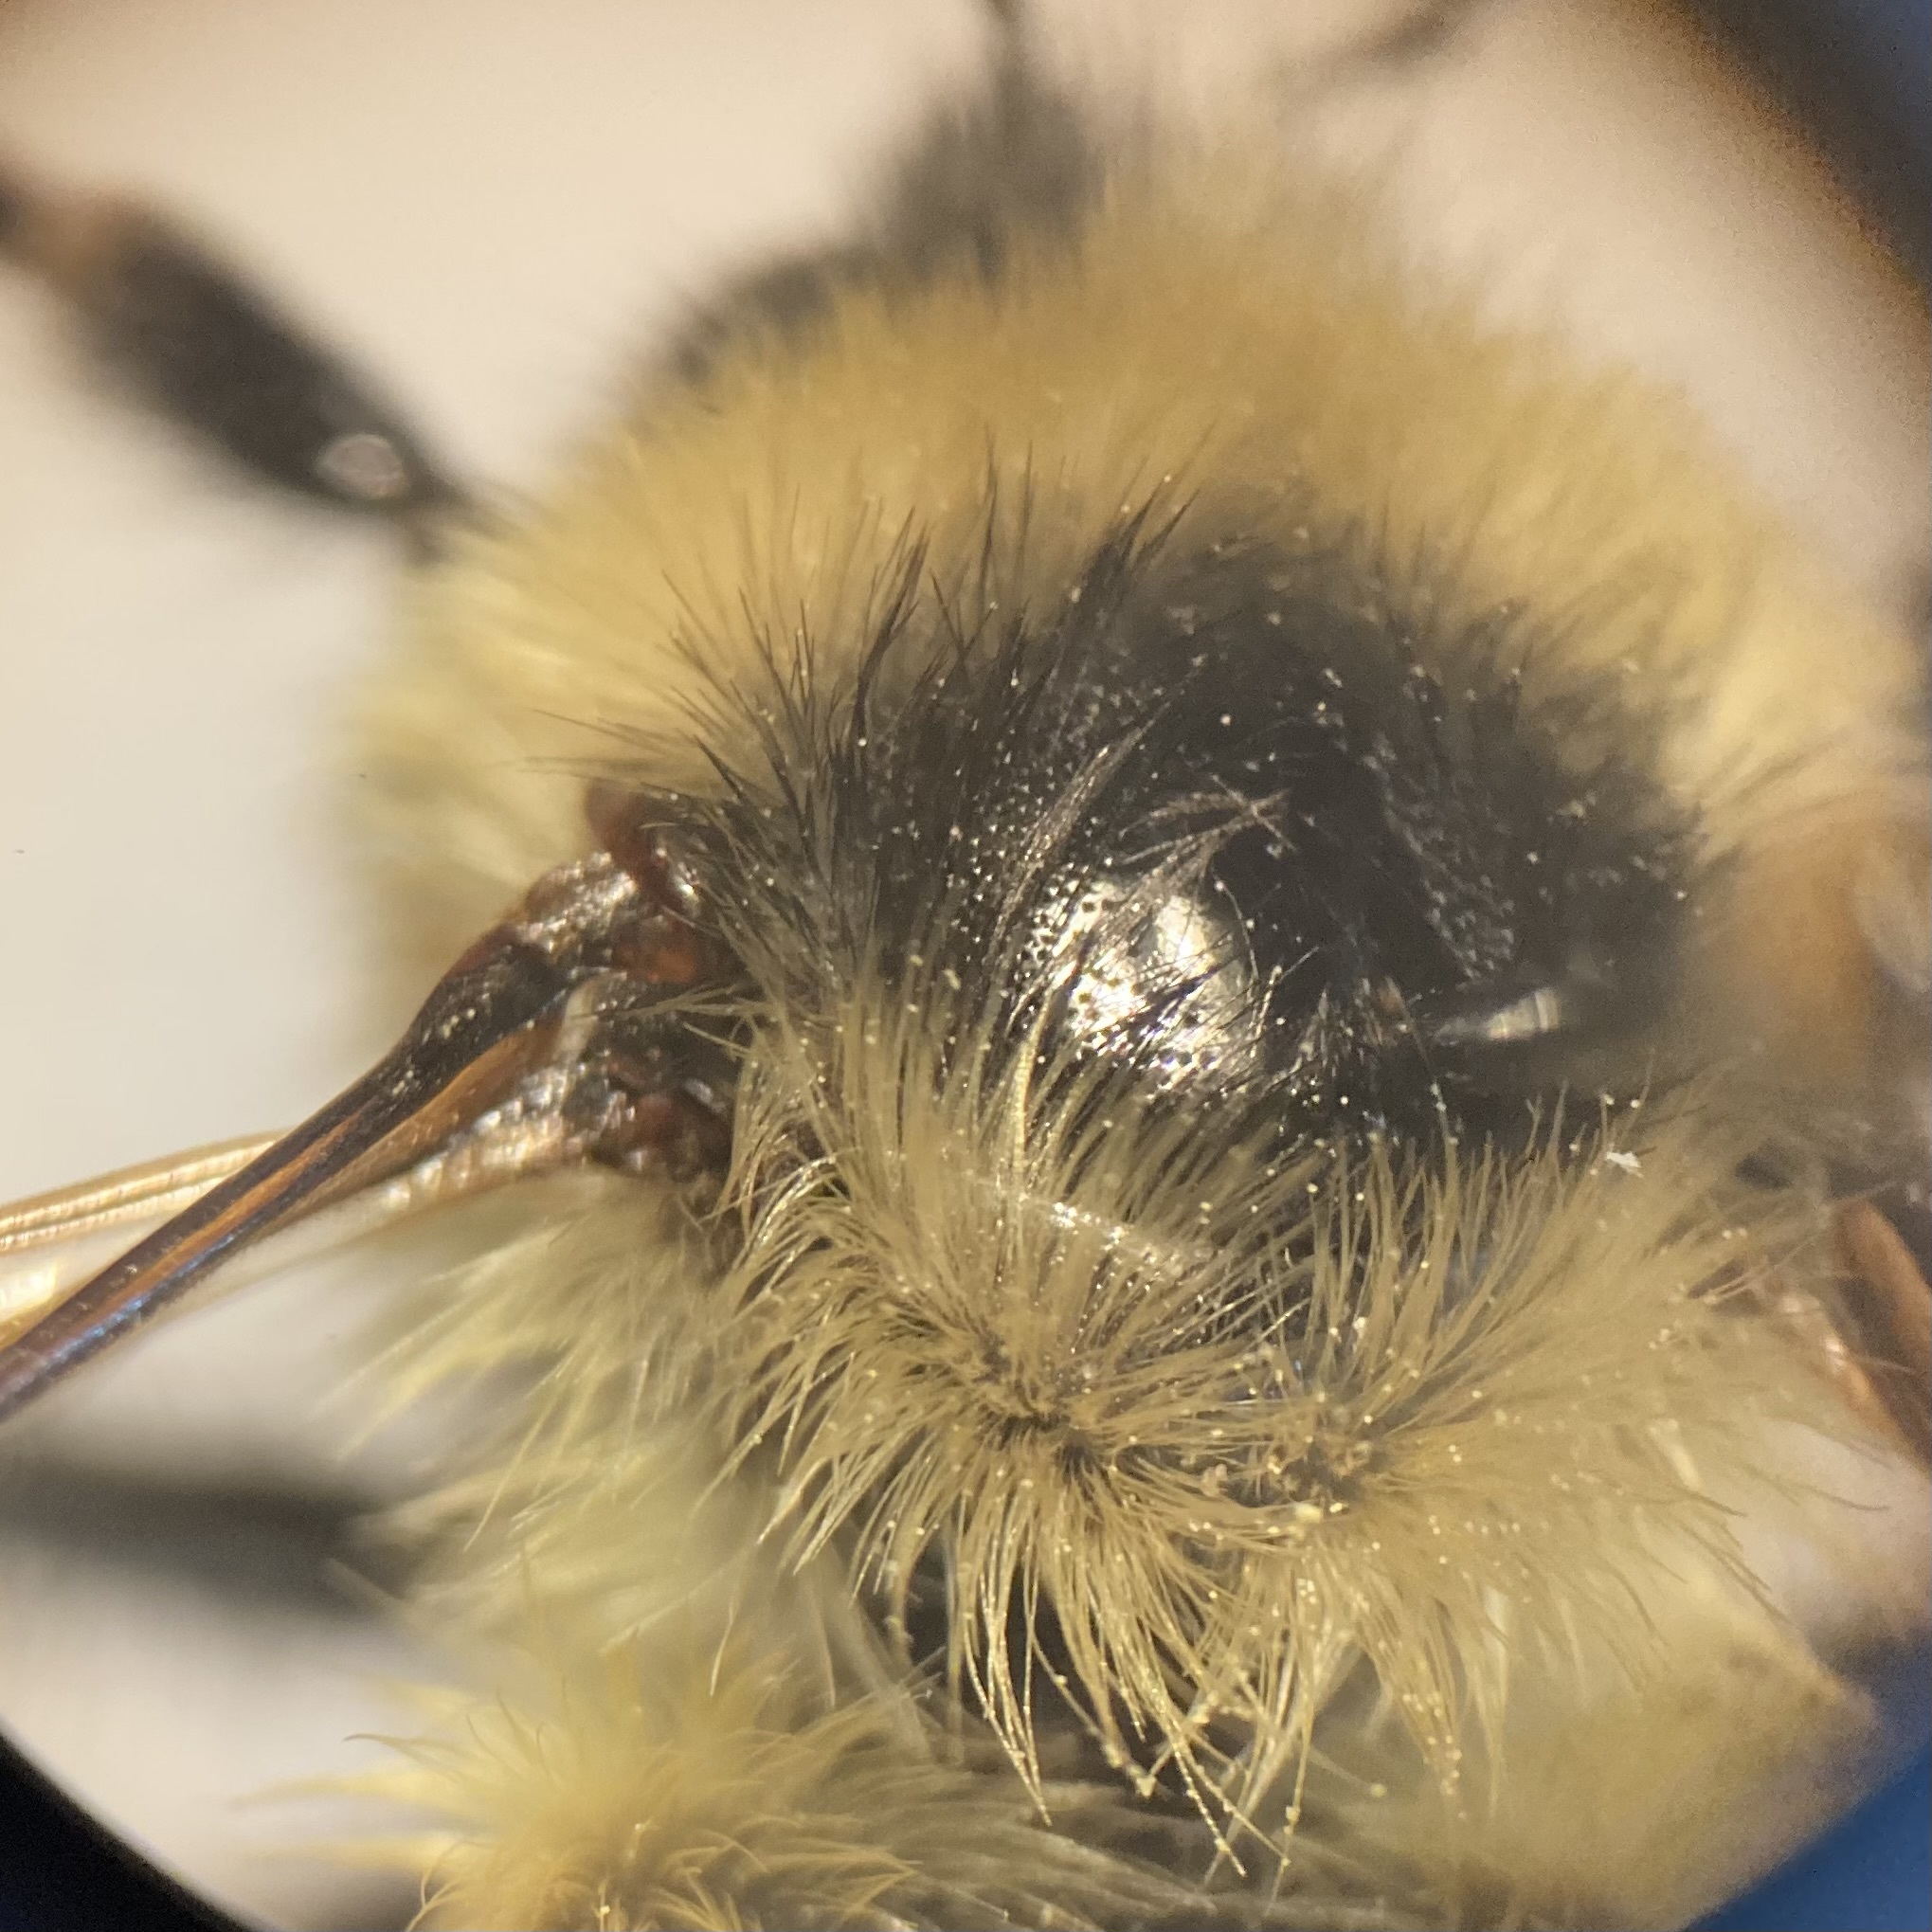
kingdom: Animalia
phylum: Arthropoda
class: Insecta
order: Hymenoptera
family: Apidae
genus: Bombus
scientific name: Bombus rufocinctus
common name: Red-belted bumble bee
